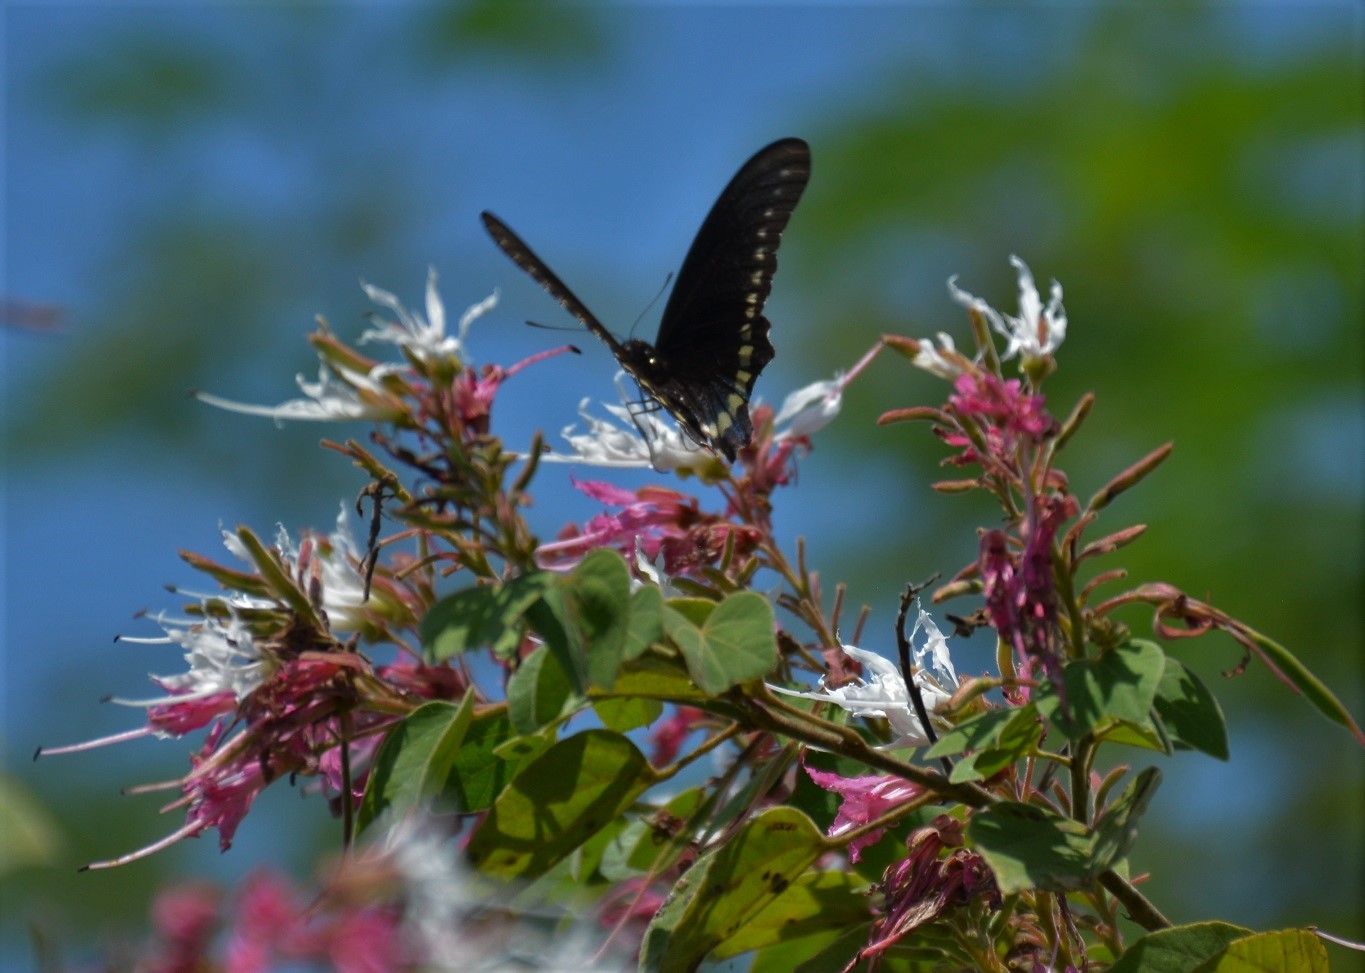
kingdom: Animalia
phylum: Arthropoda
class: Insecta
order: Lepidoptera
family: Papilionidae
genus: Battus
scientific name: Battus polydamas
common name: Polydamas swallowtail
